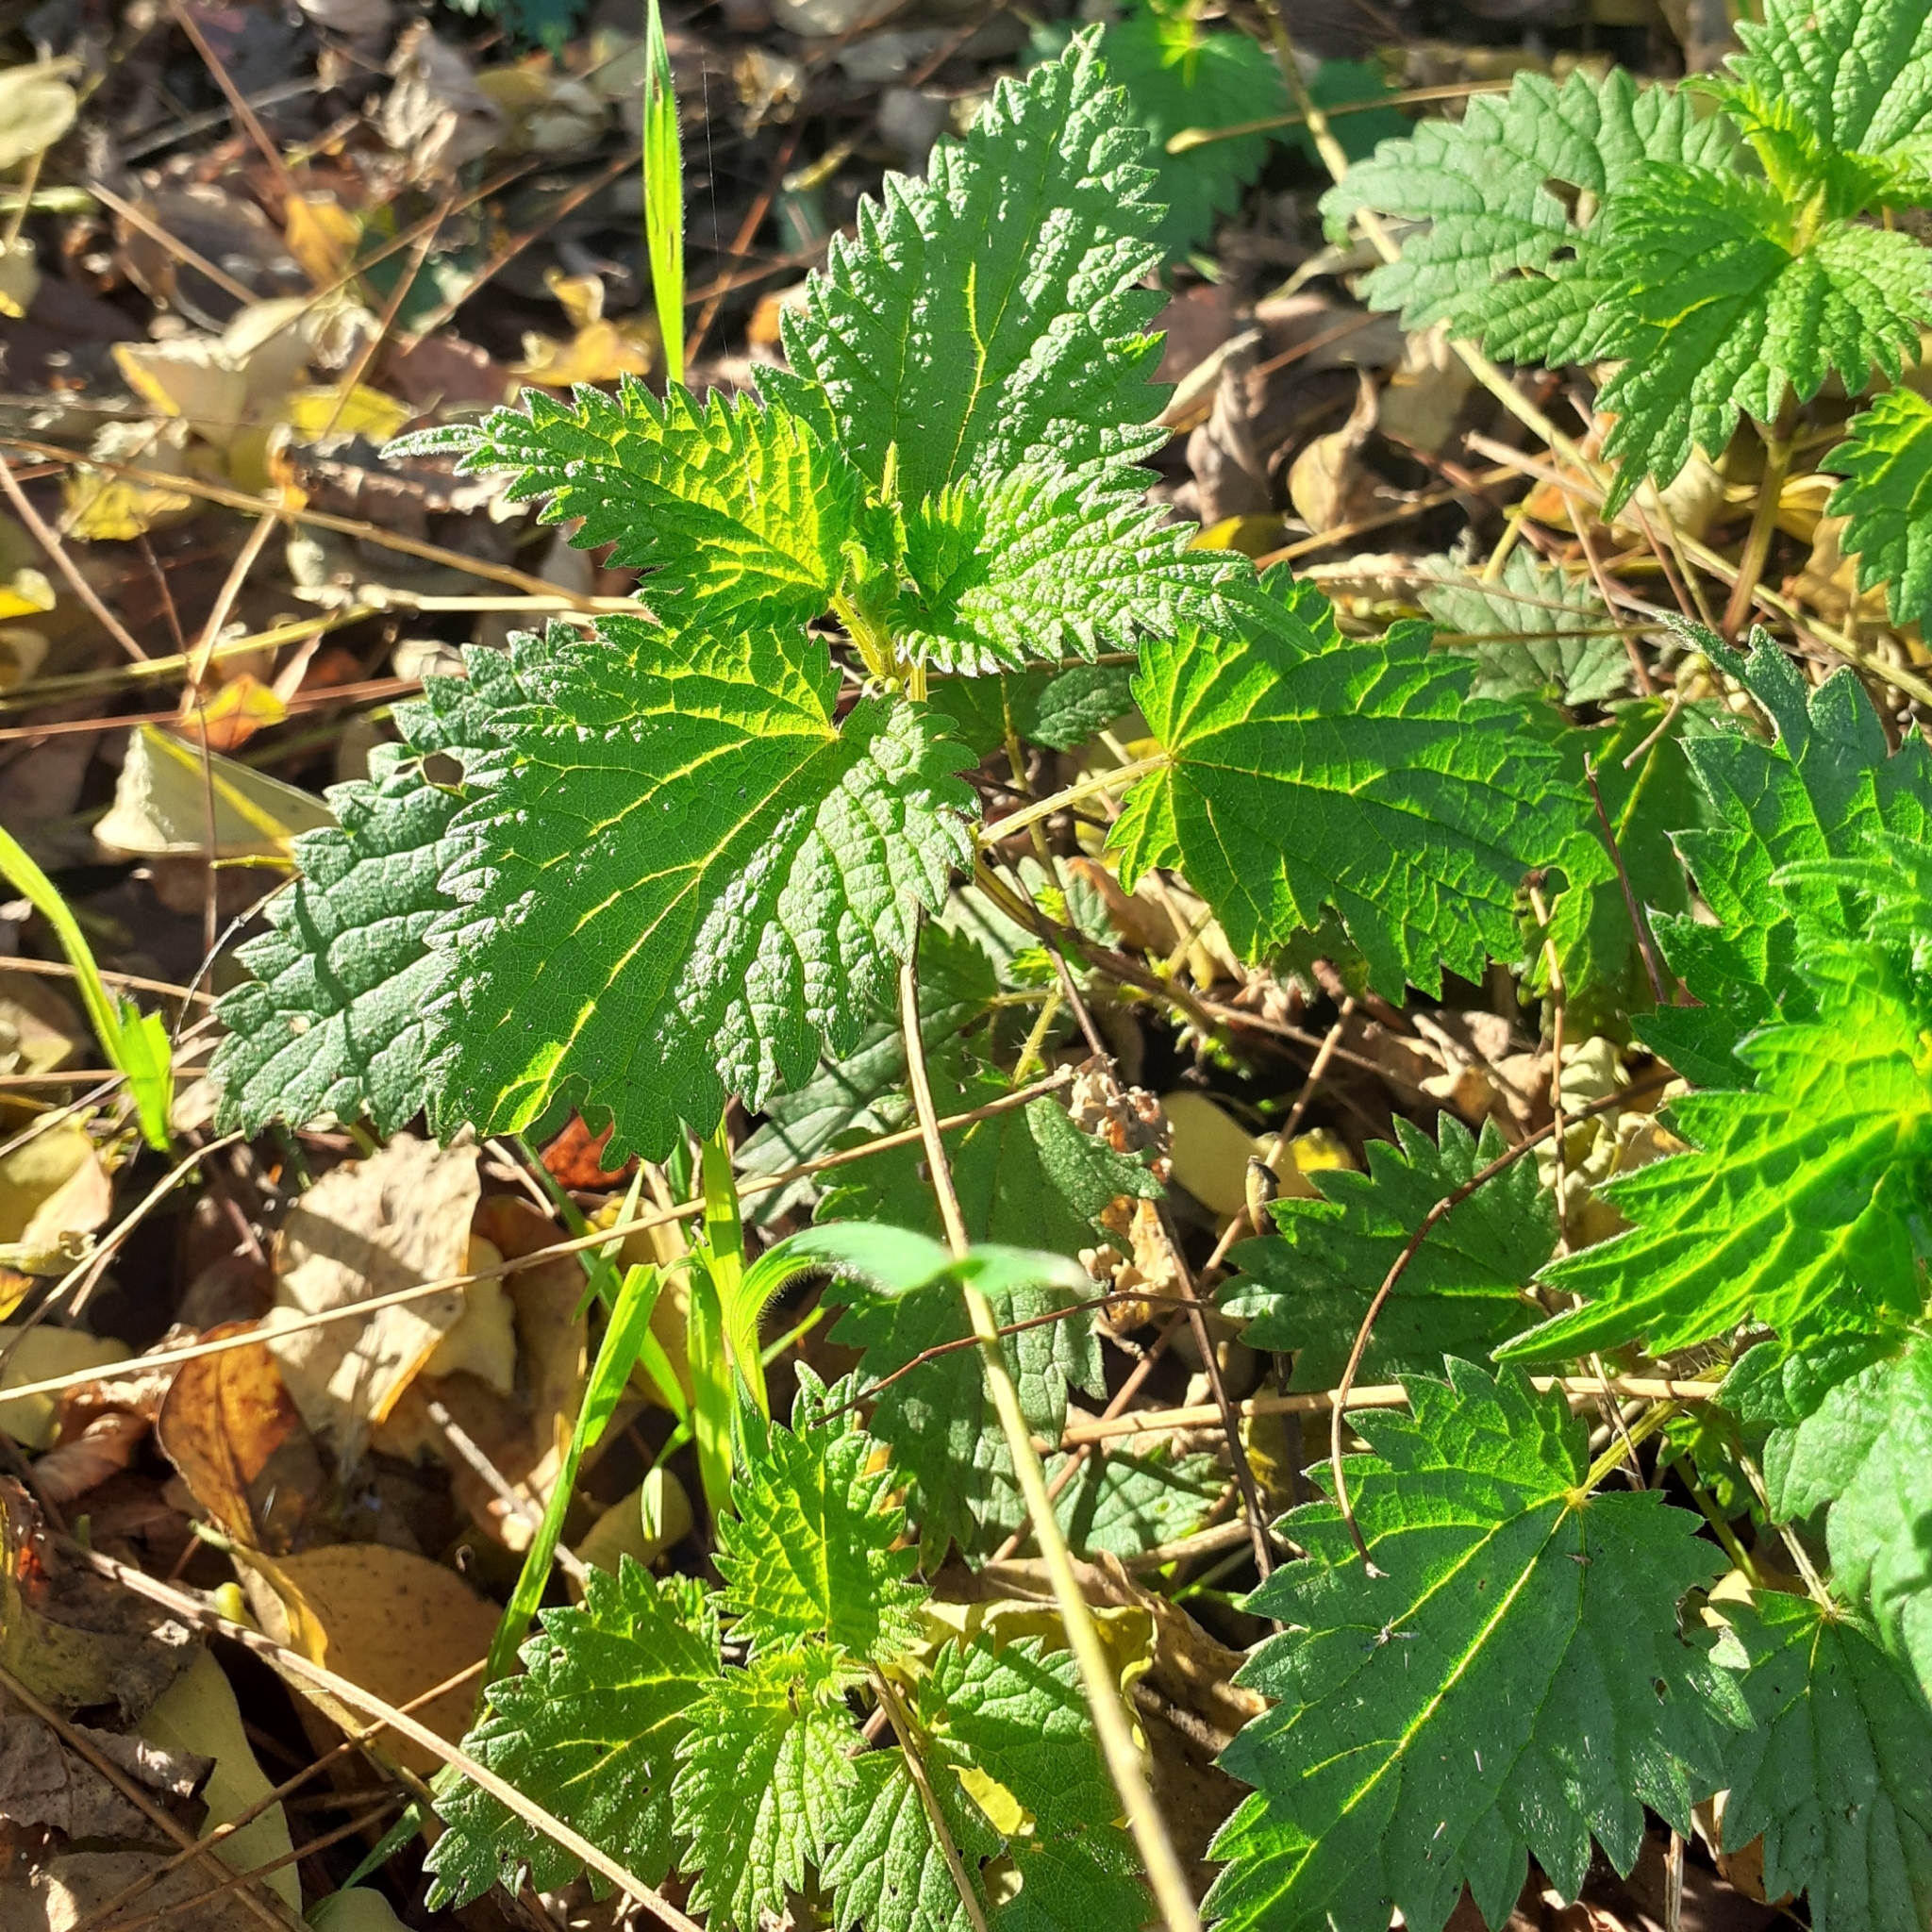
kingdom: Plantae
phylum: Tracheophyta
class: Magnoliopsida
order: Rosales
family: Urticaceae
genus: Urtica
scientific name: Urtica dioica
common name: Common nettle
